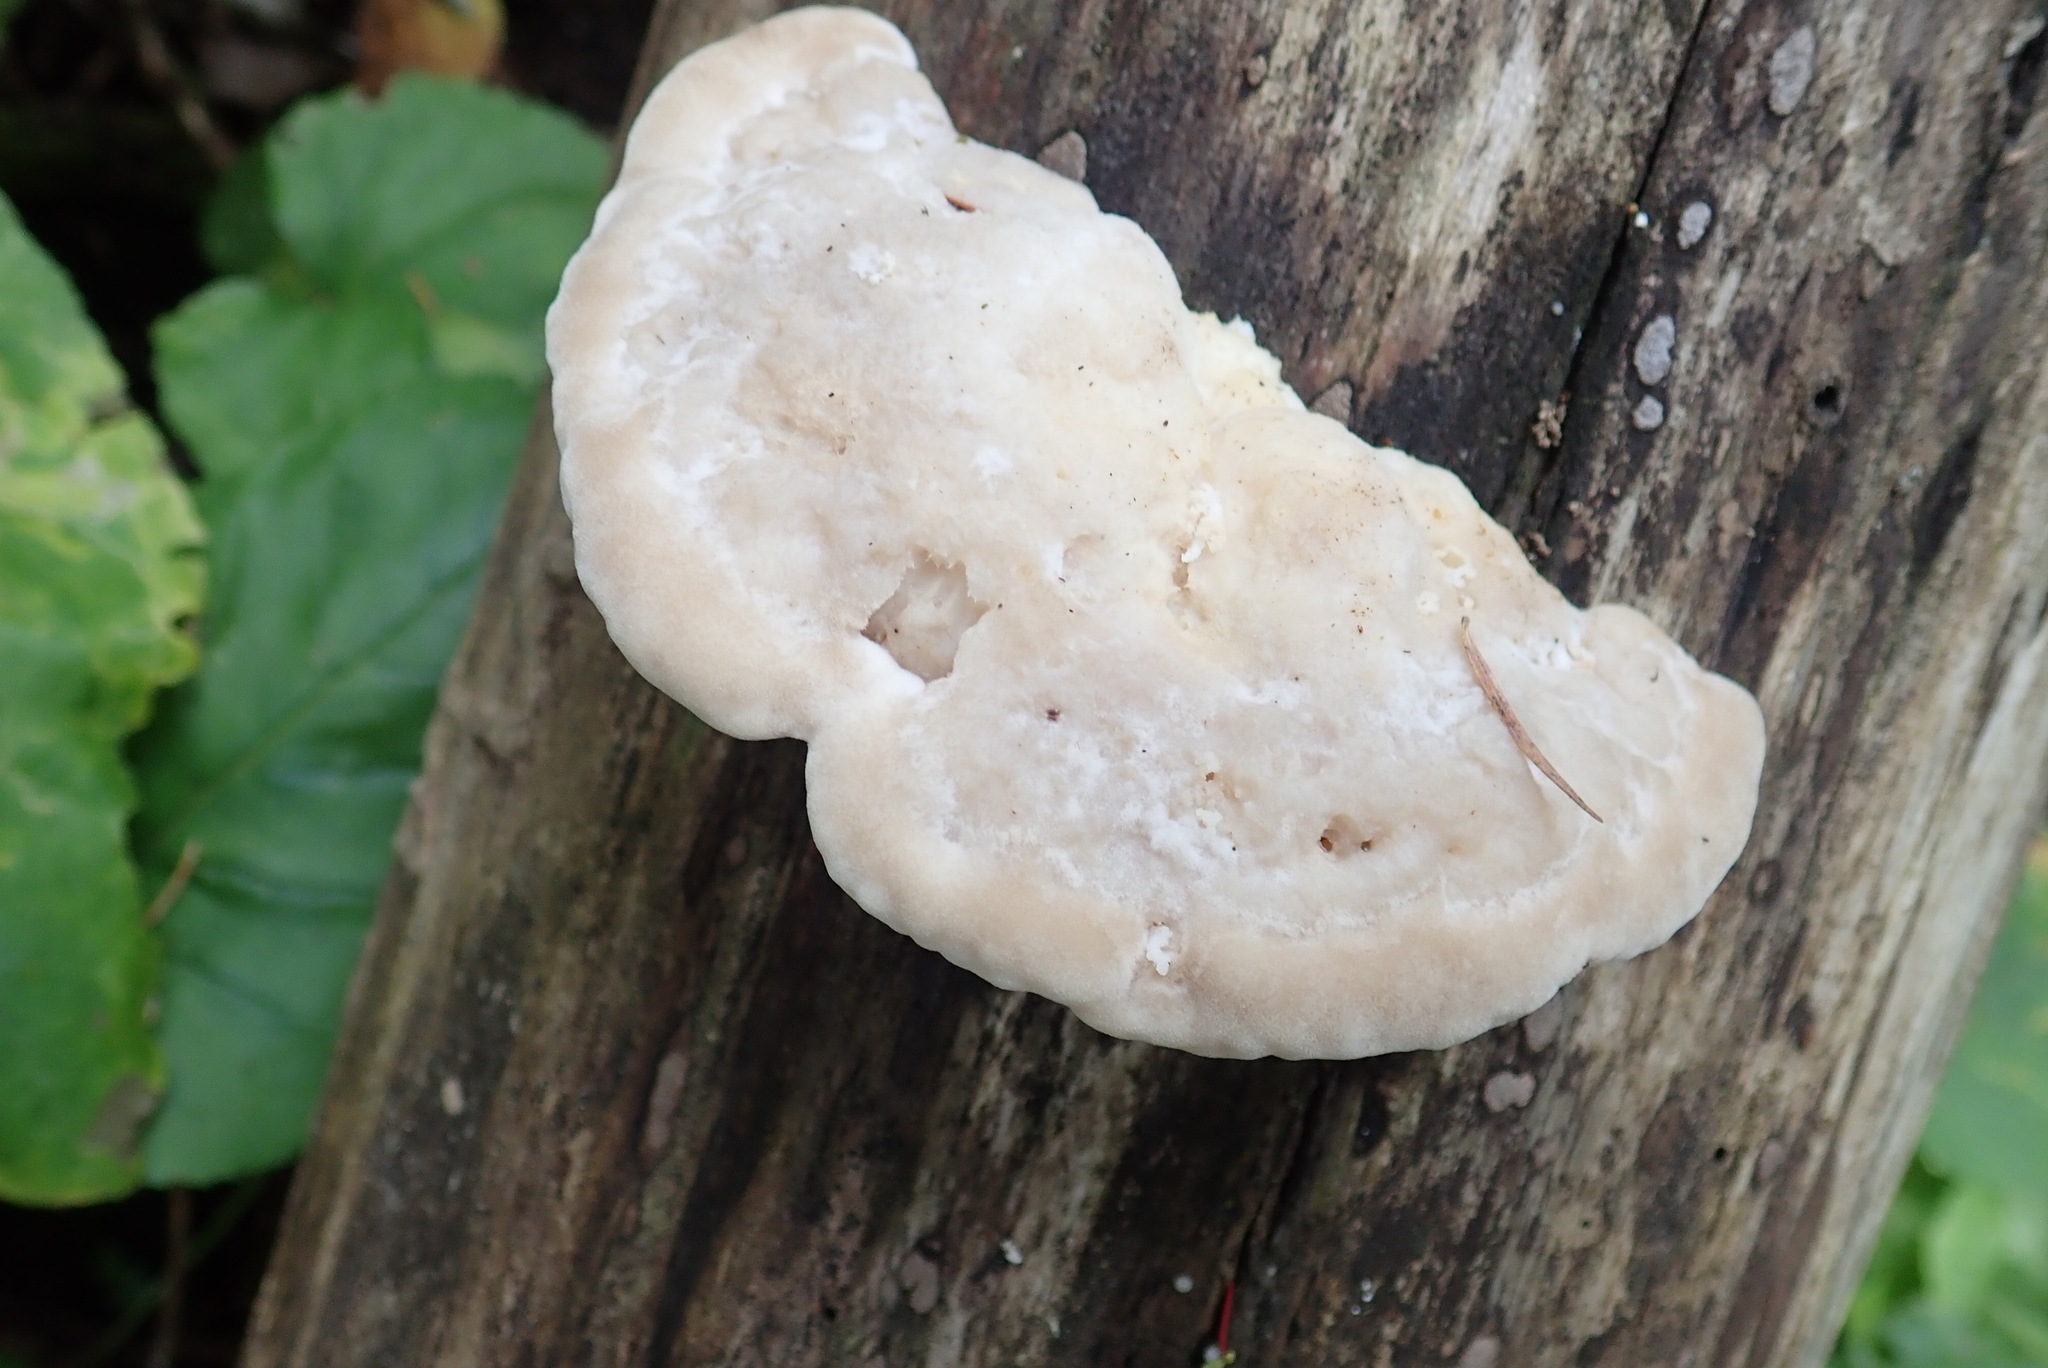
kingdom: Fungi
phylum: Basidiomycota
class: Agaricomycetes
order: Polyporales
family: Incrustoporiaceae
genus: Tyromyces
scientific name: Tyromyces chioneus
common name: White cheese polypore
